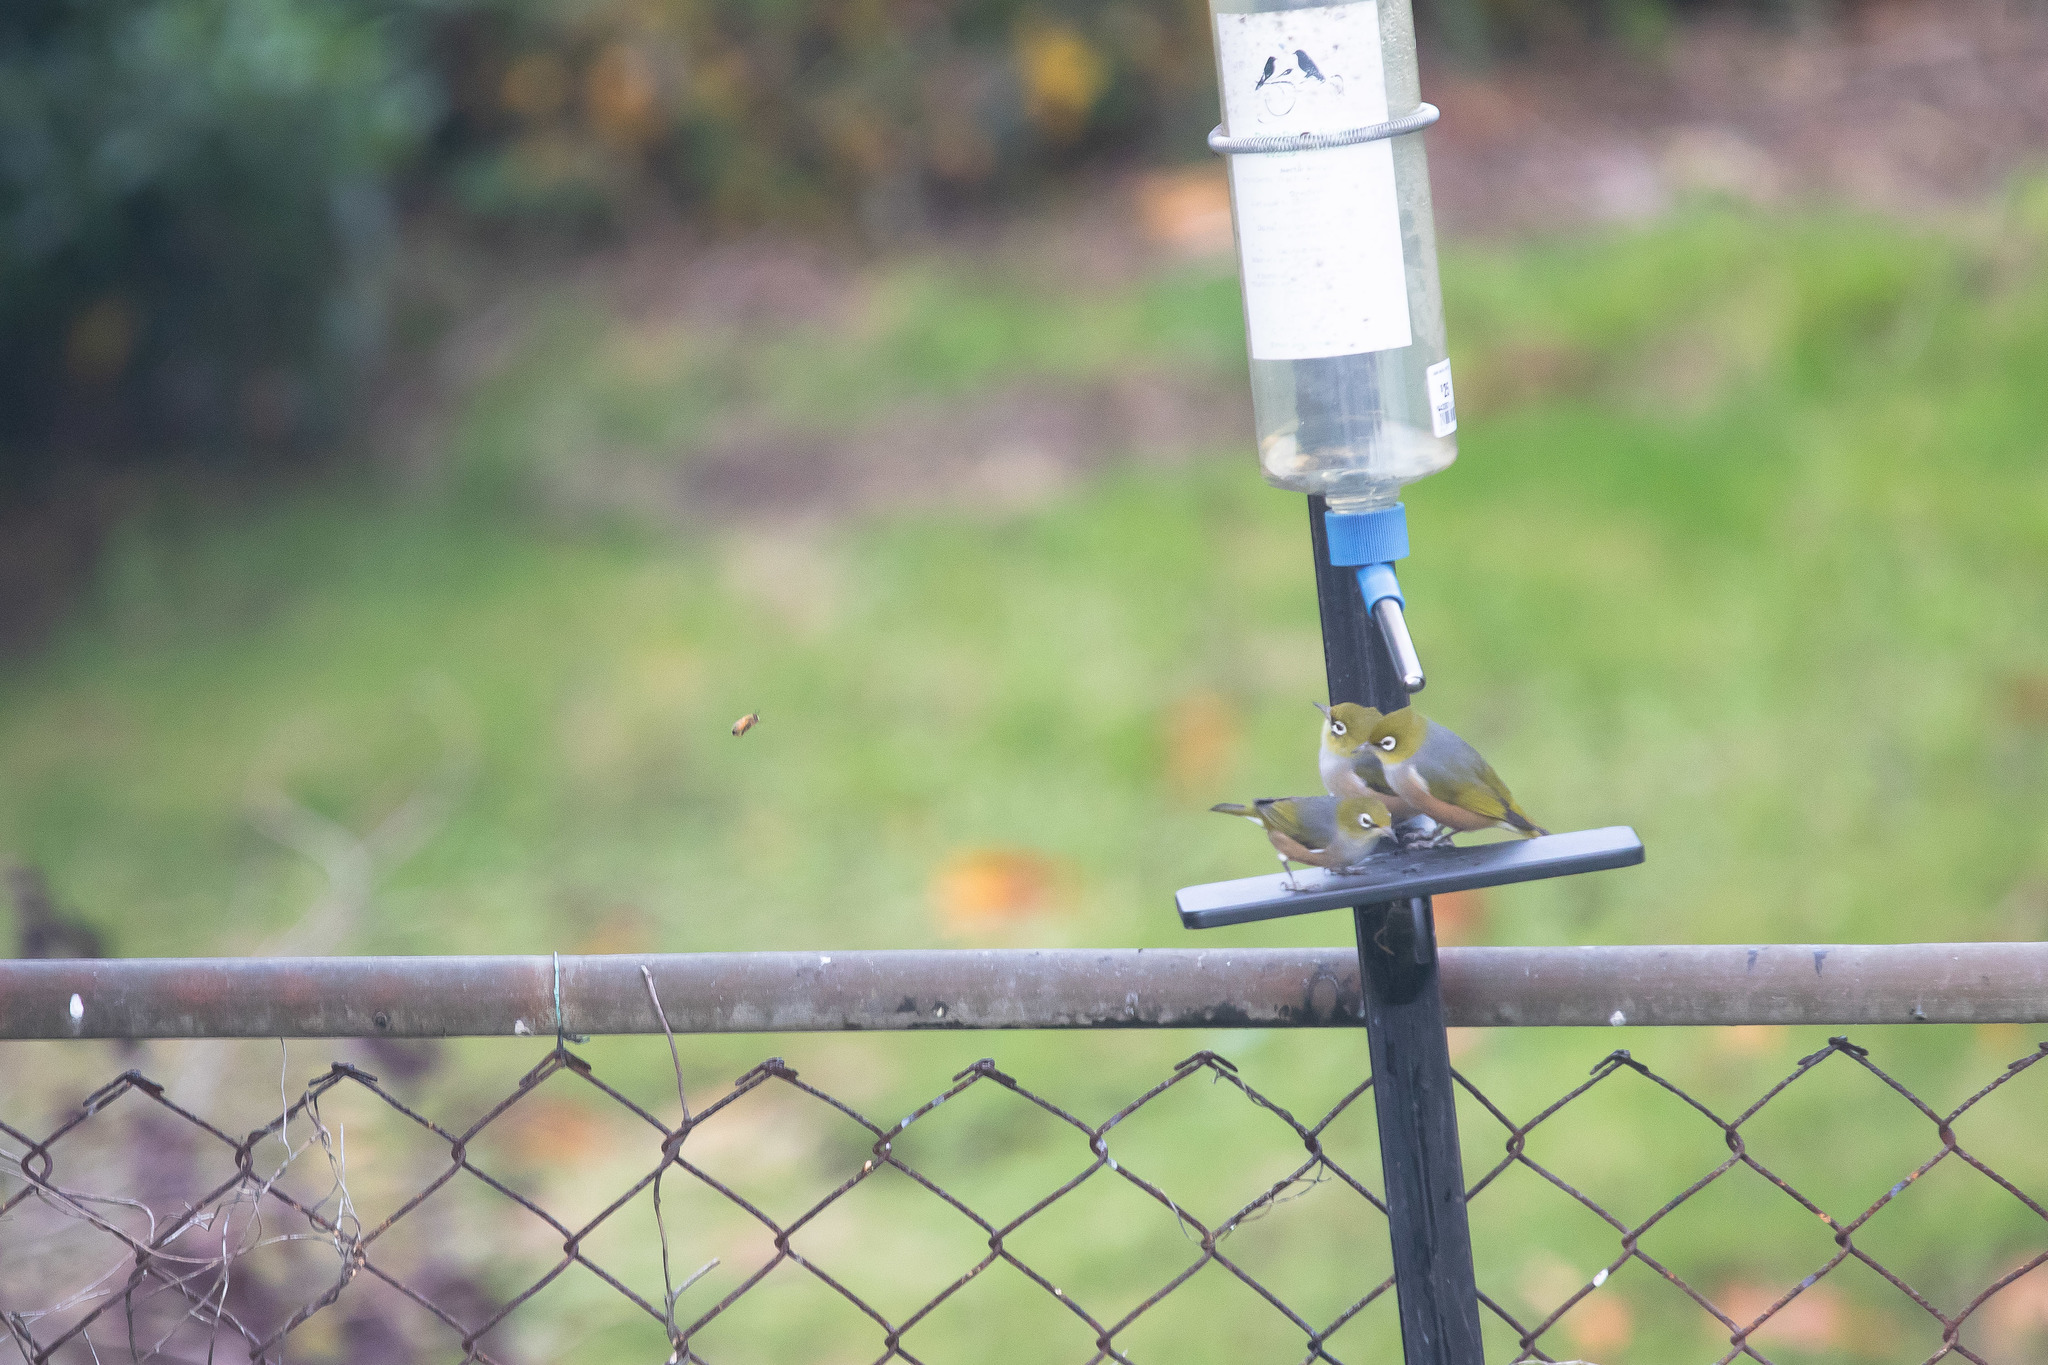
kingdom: Animalia
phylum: Chordata
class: Aves
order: Passeriformes
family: Zosteropidae
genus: Zosterops
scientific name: Zosterops lateralis
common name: Silvereye
